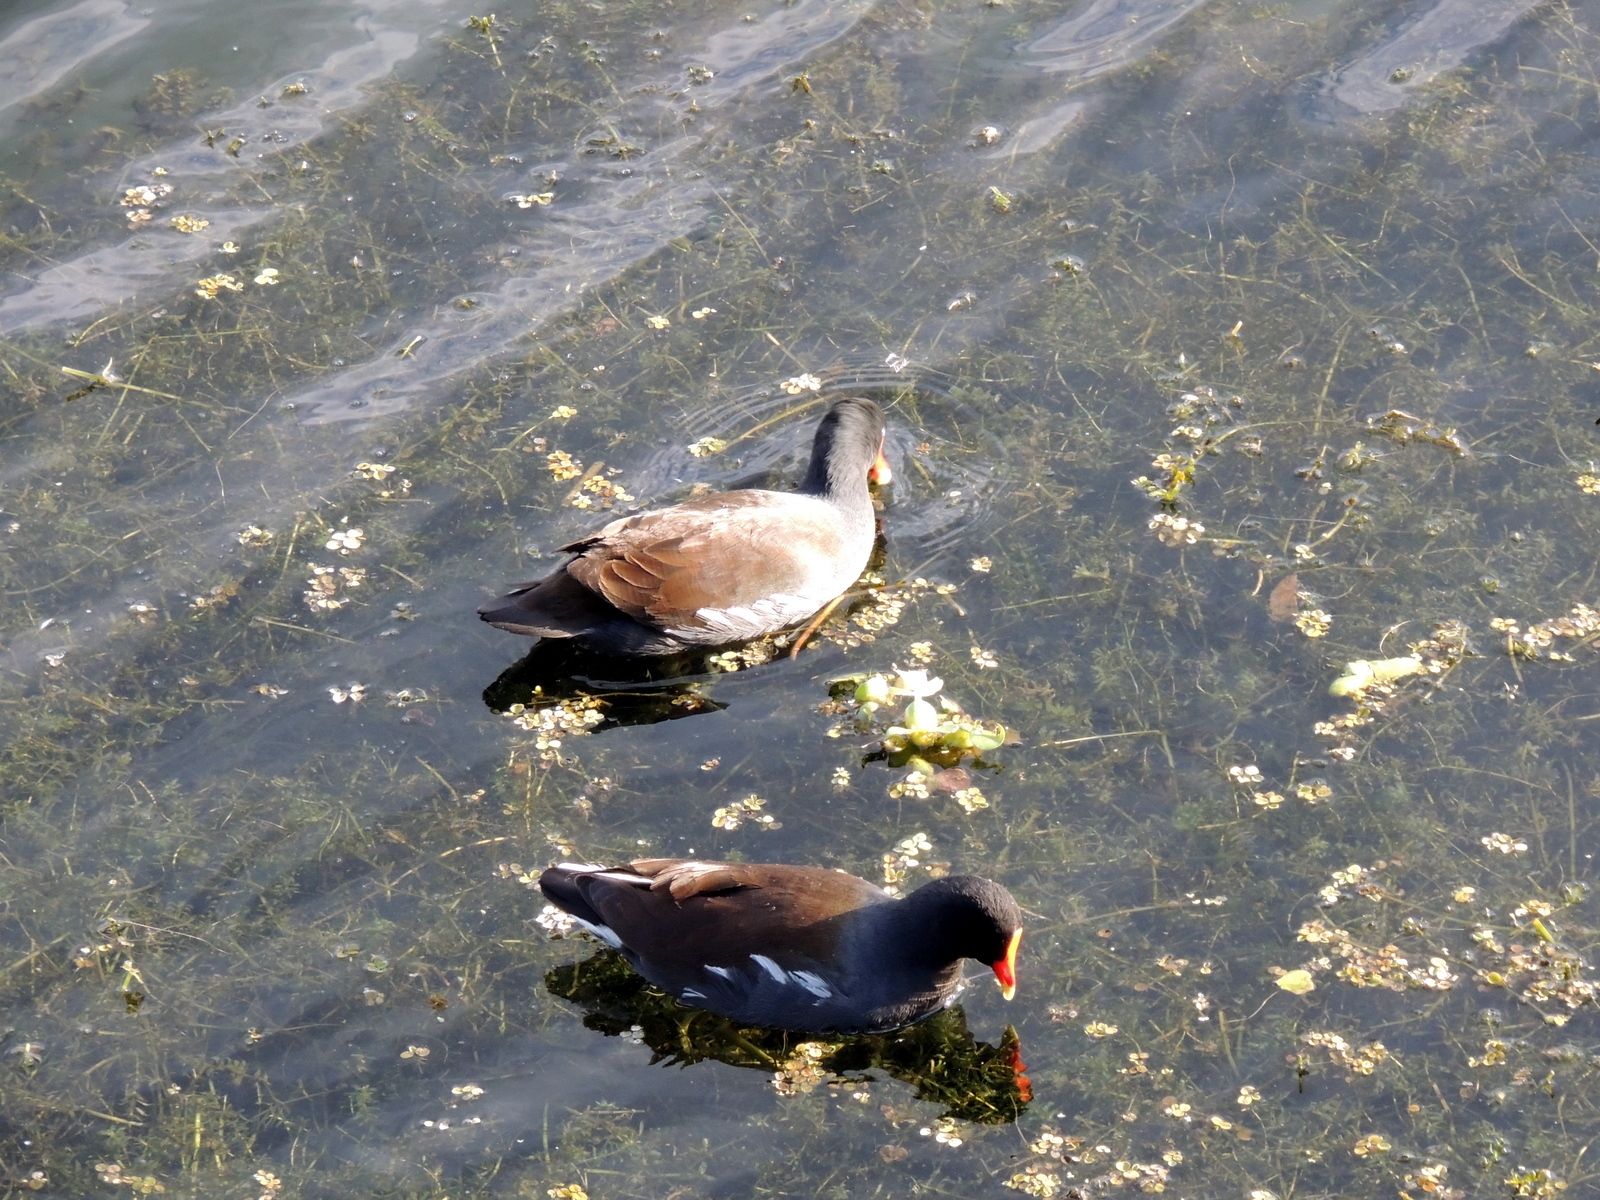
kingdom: Animalia
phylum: Chordata
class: Aves
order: Gruiformes
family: Rallidae
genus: Gallinula
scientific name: Gallinula chloropus
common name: Common moorhen
